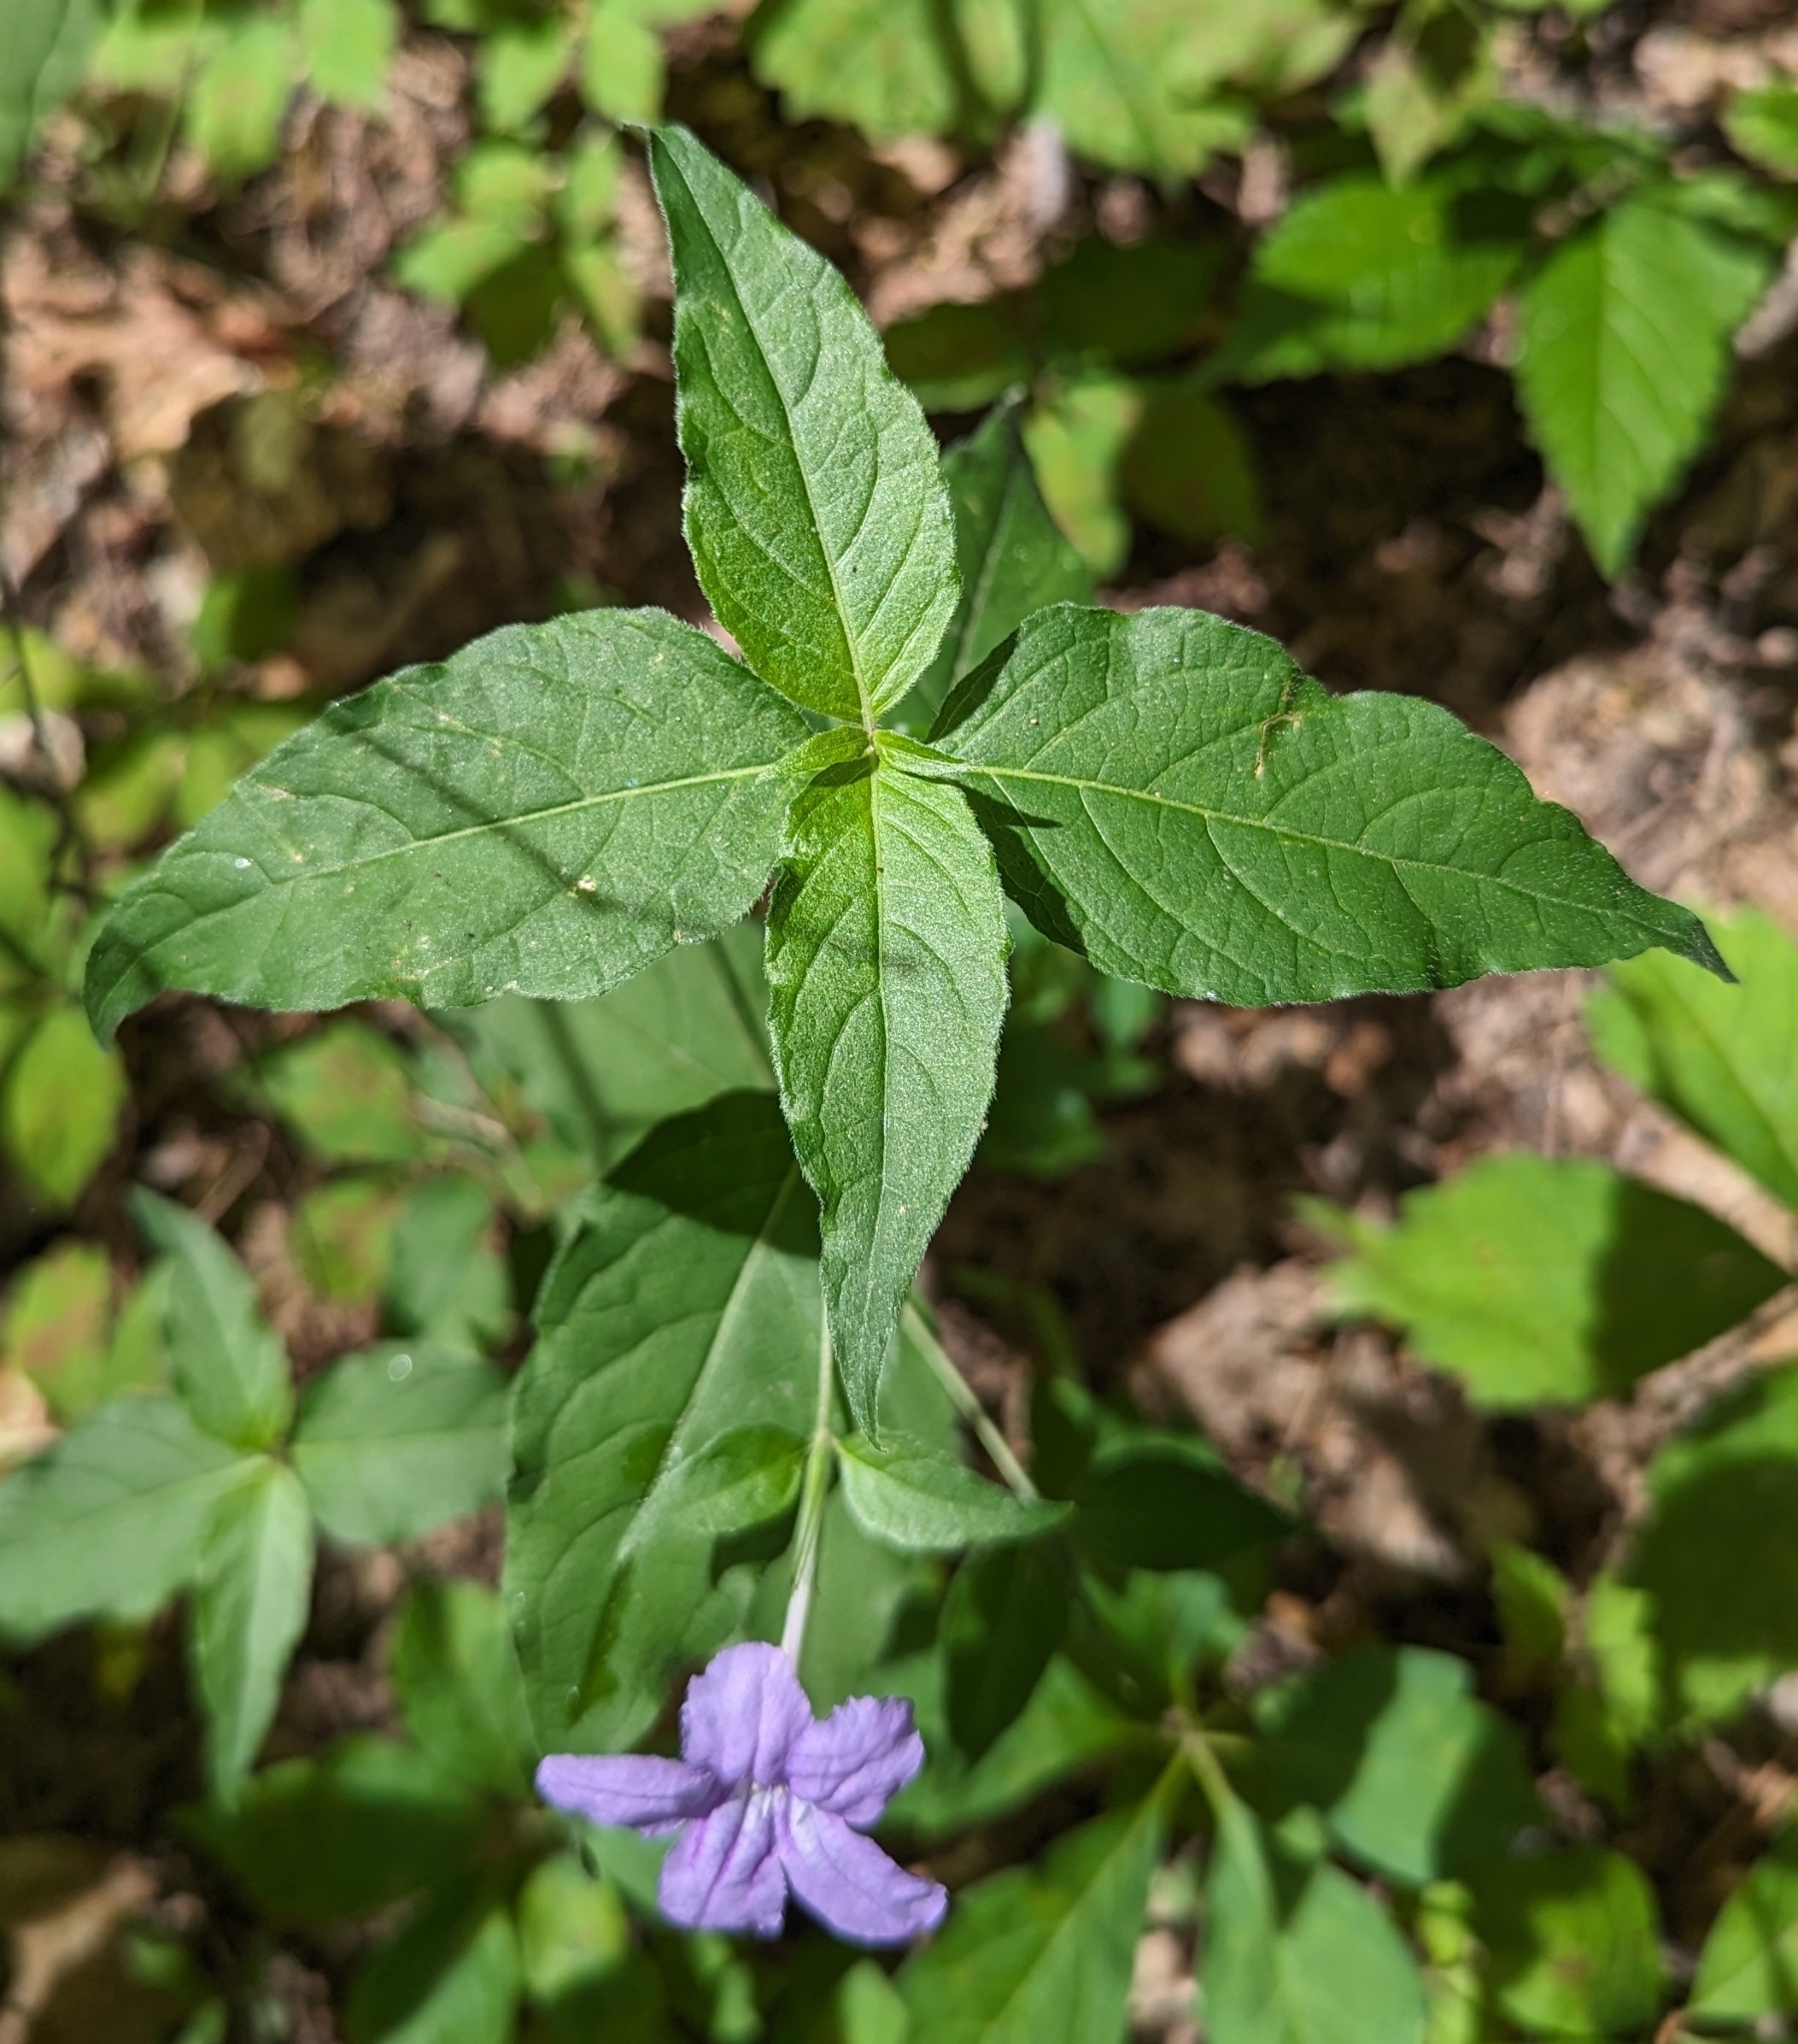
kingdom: Plantae
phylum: Tracheophyta
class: Magnoliopsida
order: Lamiales
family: Acanthaceae
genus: Ruellia
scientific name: Ruellia pedunculata
